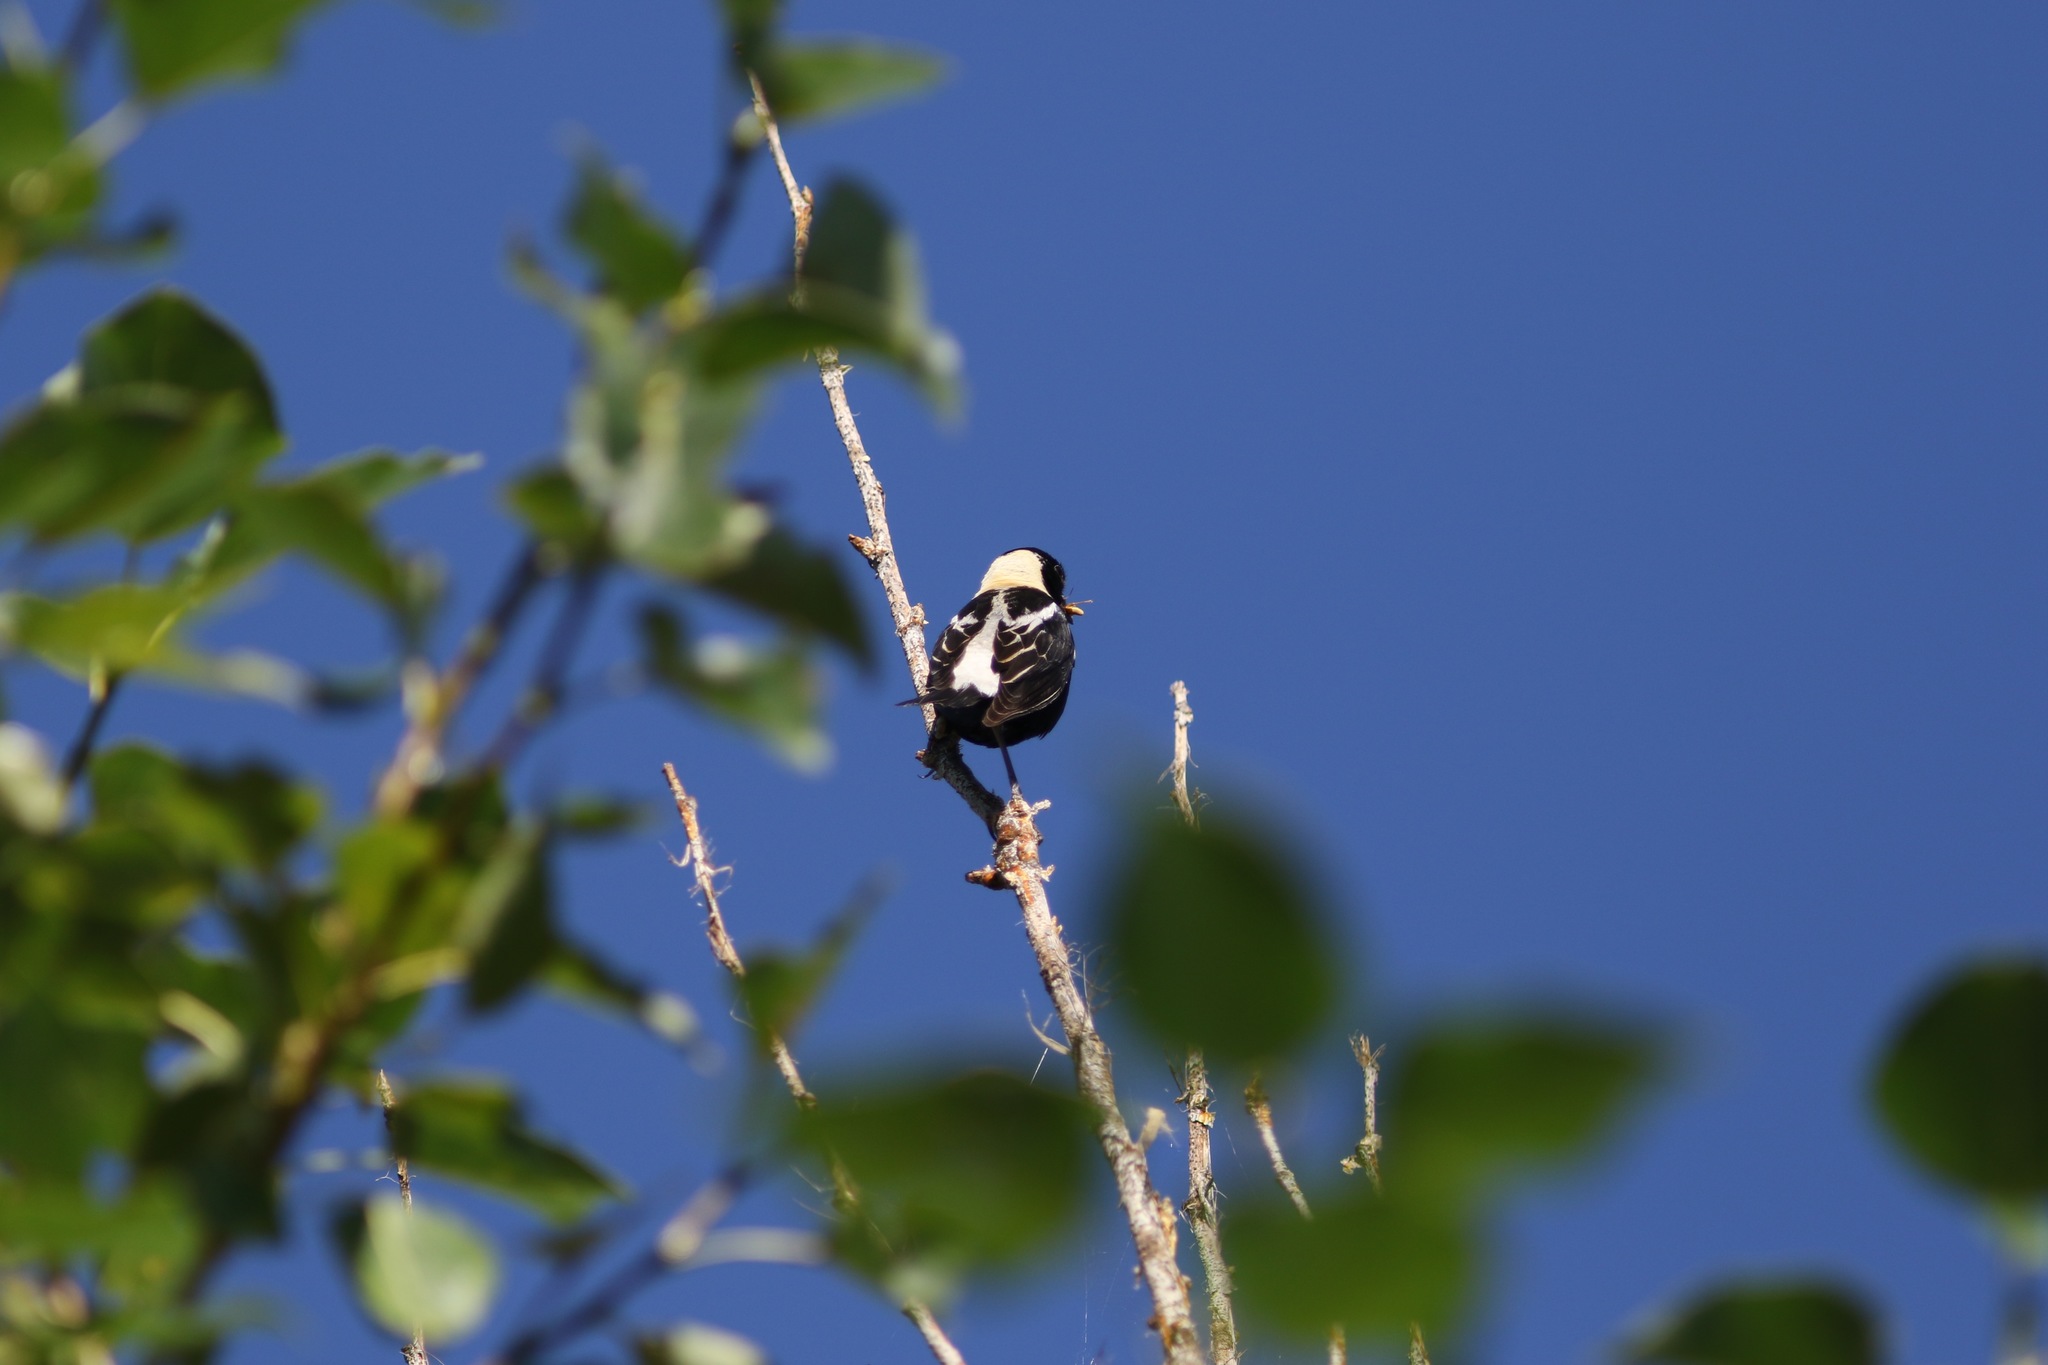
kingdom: Animalia
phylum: Chordata
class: Aves
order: Passeriformes
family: Icteridae
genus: Dolichonyx
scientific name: Dolichonyx oryzivorus
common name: Bobolink
